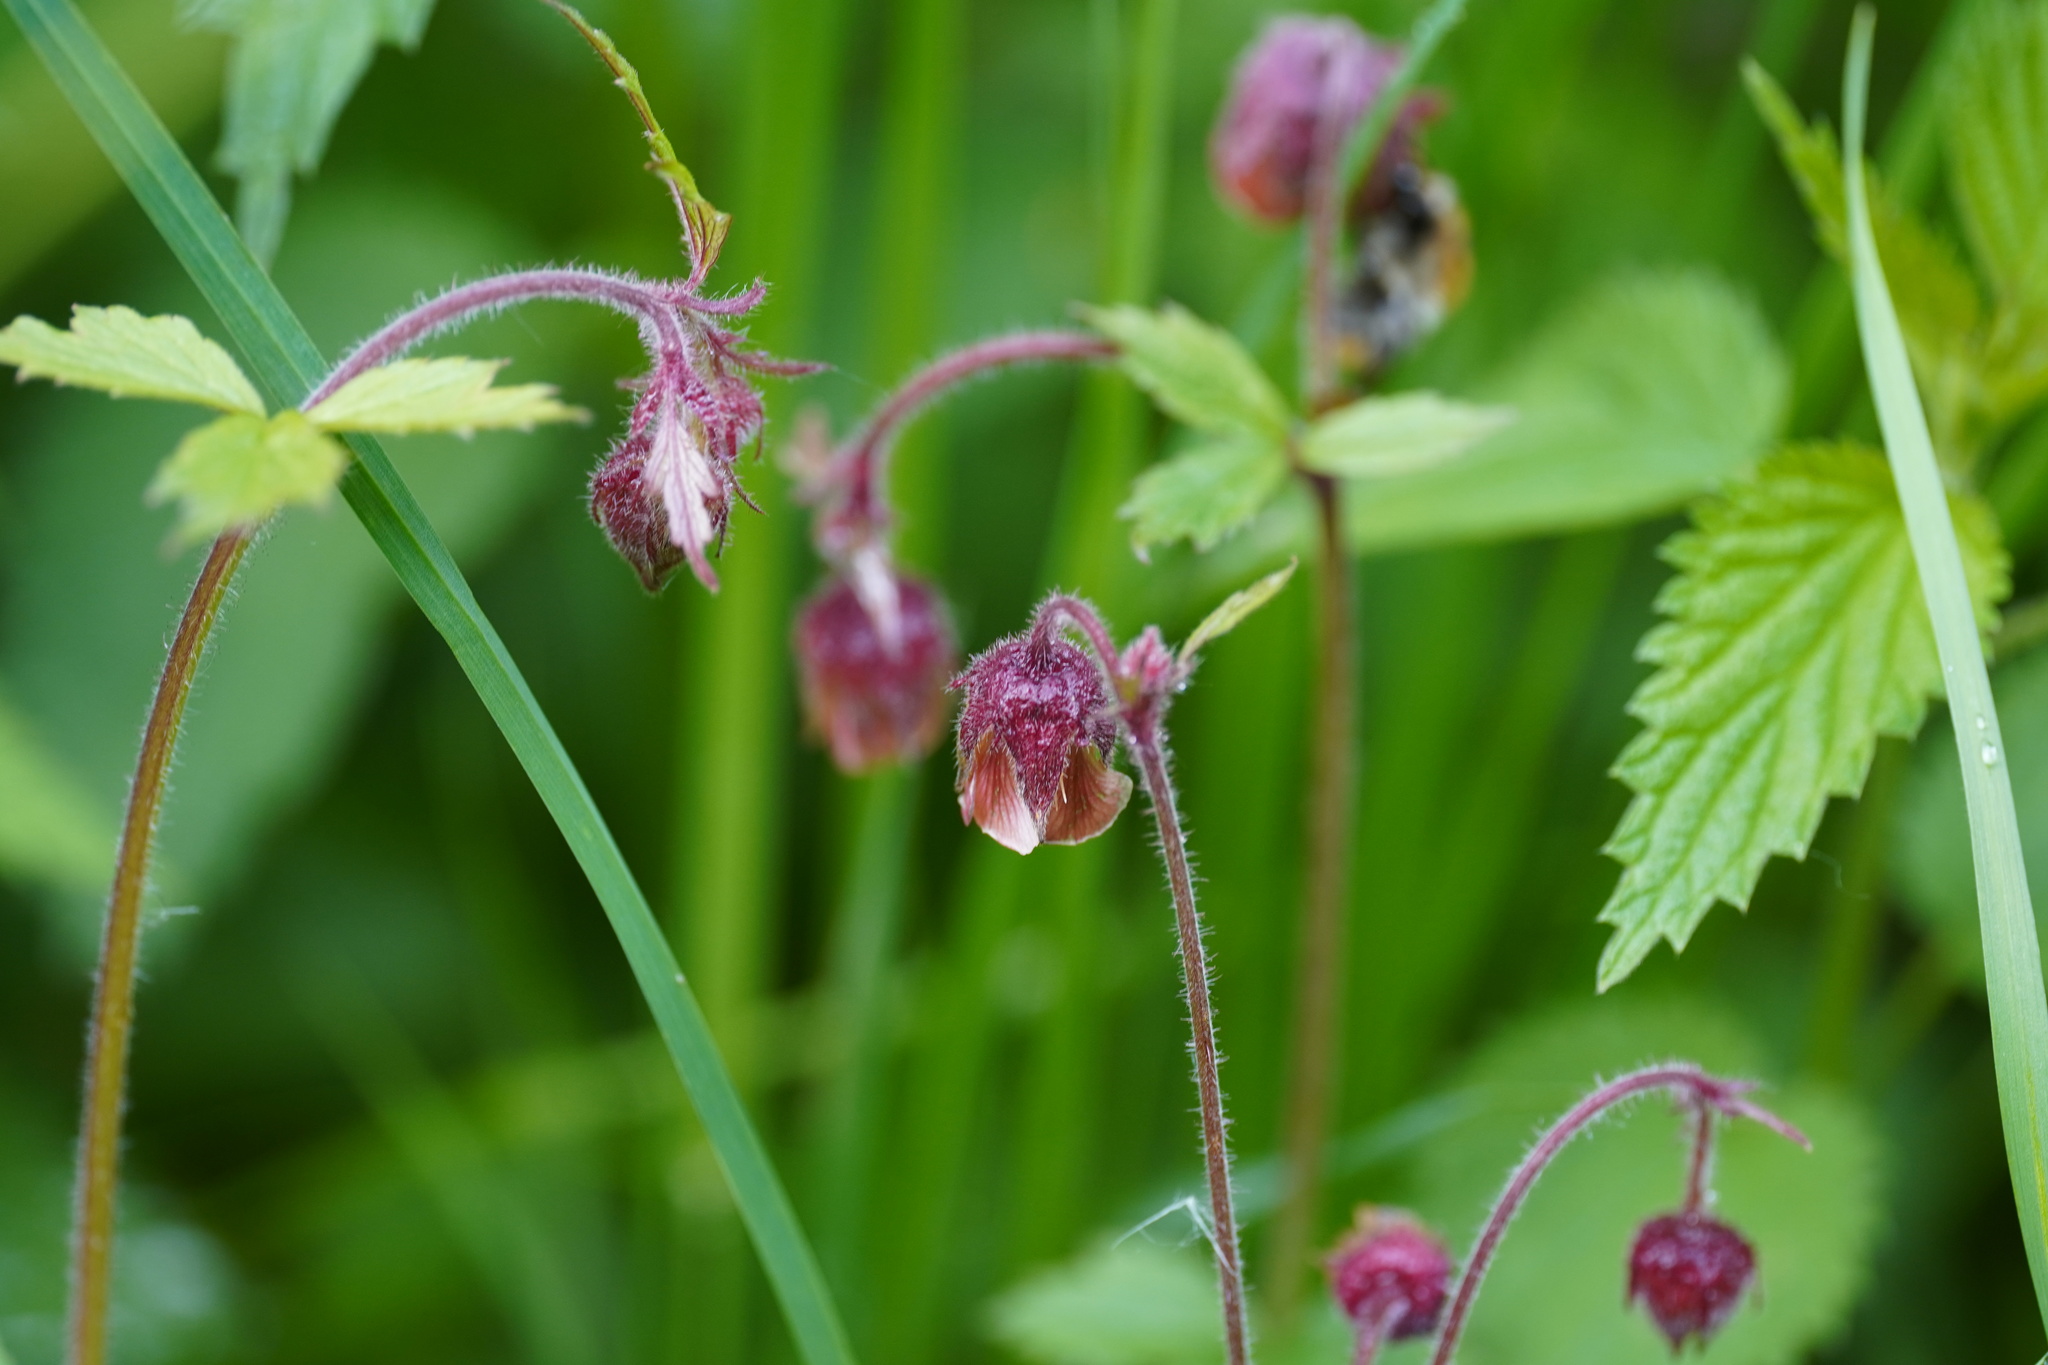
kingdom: Plantae
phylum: Tracheophyta
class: Magnoliopsida
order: Rosales
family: Rosaceae
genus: Geum
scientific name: Geum rivale
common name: Water avens
